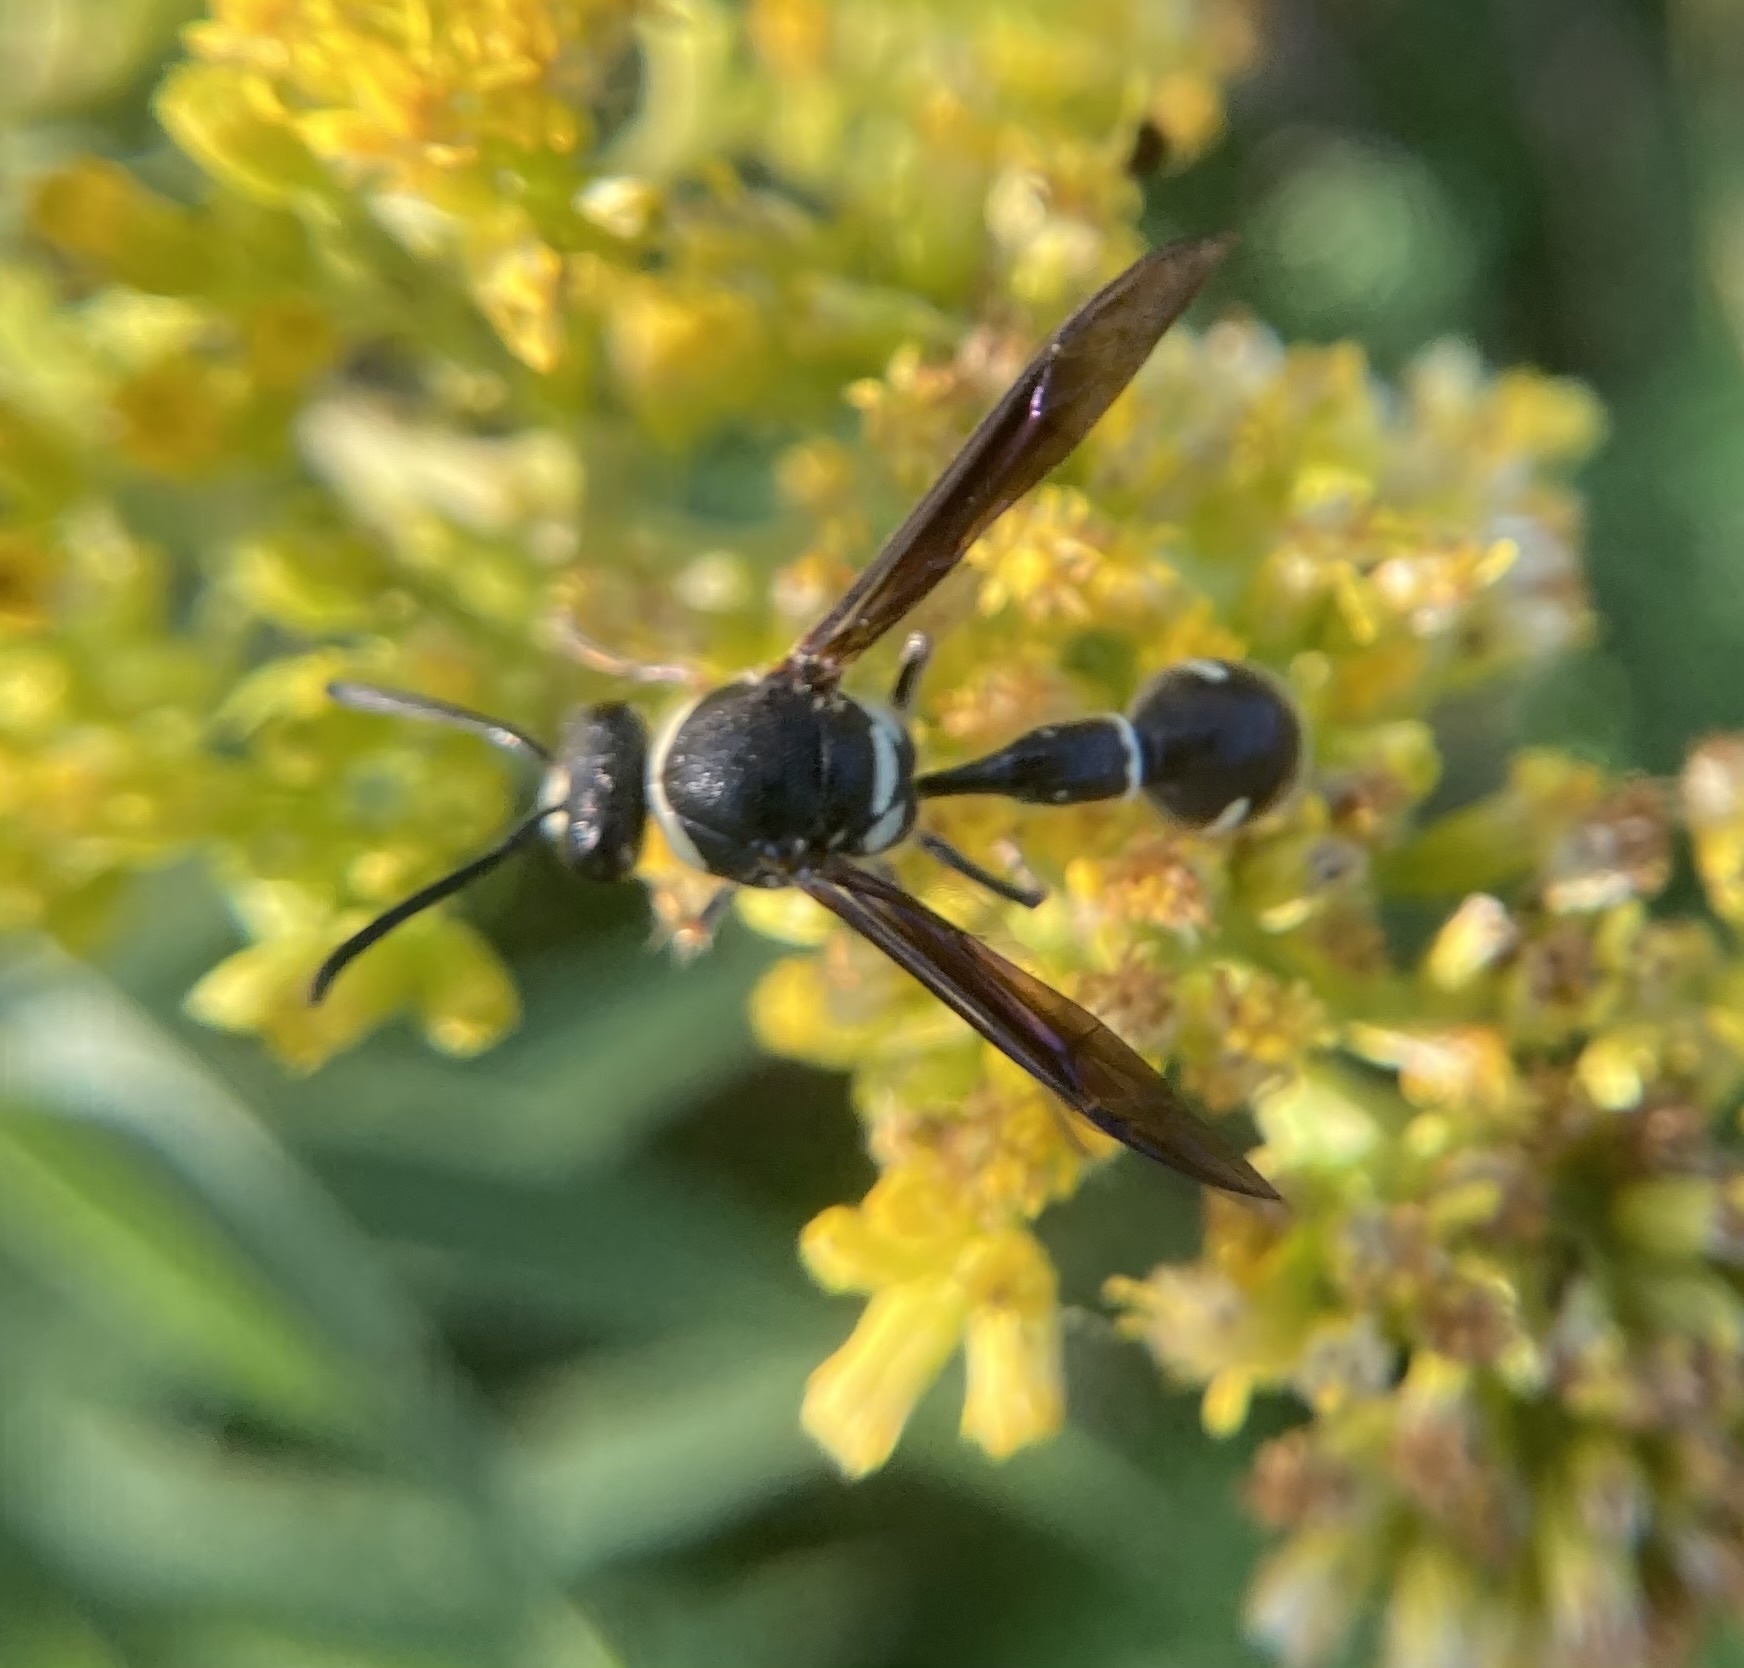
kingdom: Animalia
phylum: Arthropoda
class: Insecta
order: Hymenoptera
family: Vespidae
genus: Eumenes
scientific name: Eumenes fraternus
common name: Fraternal potter wasp
